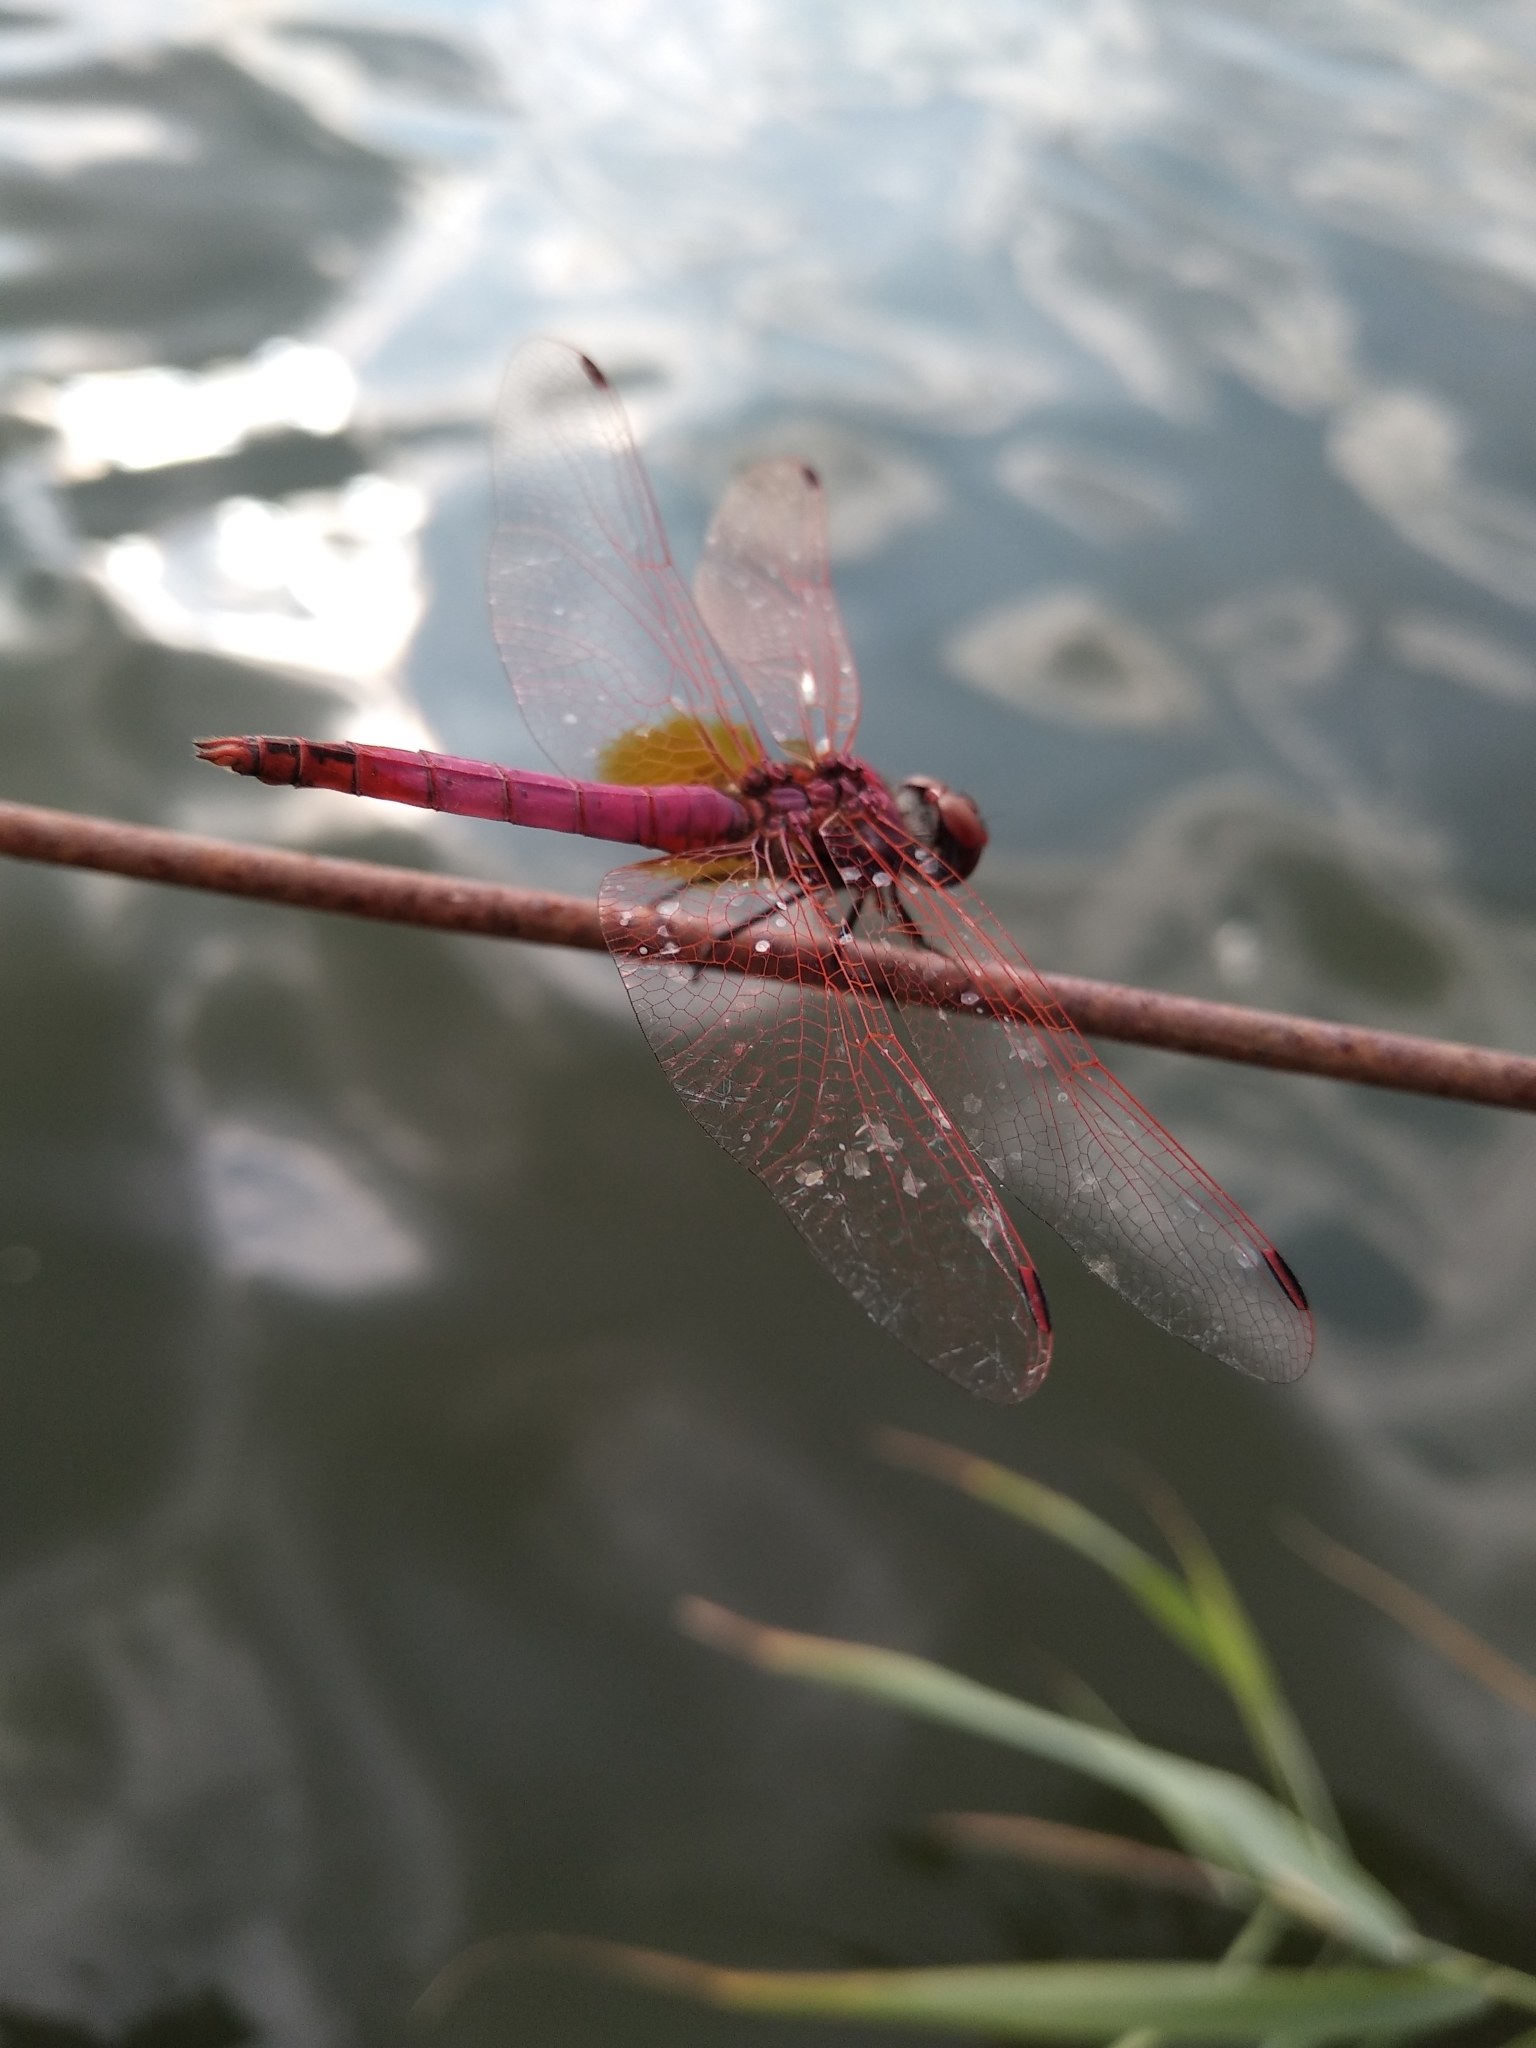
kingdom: Animalia
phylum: Arthropoda
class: Insecta
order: Odonata
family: Libellulidae
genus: Trithemis
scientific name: Trithemis annulata
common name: Violet dropwing
